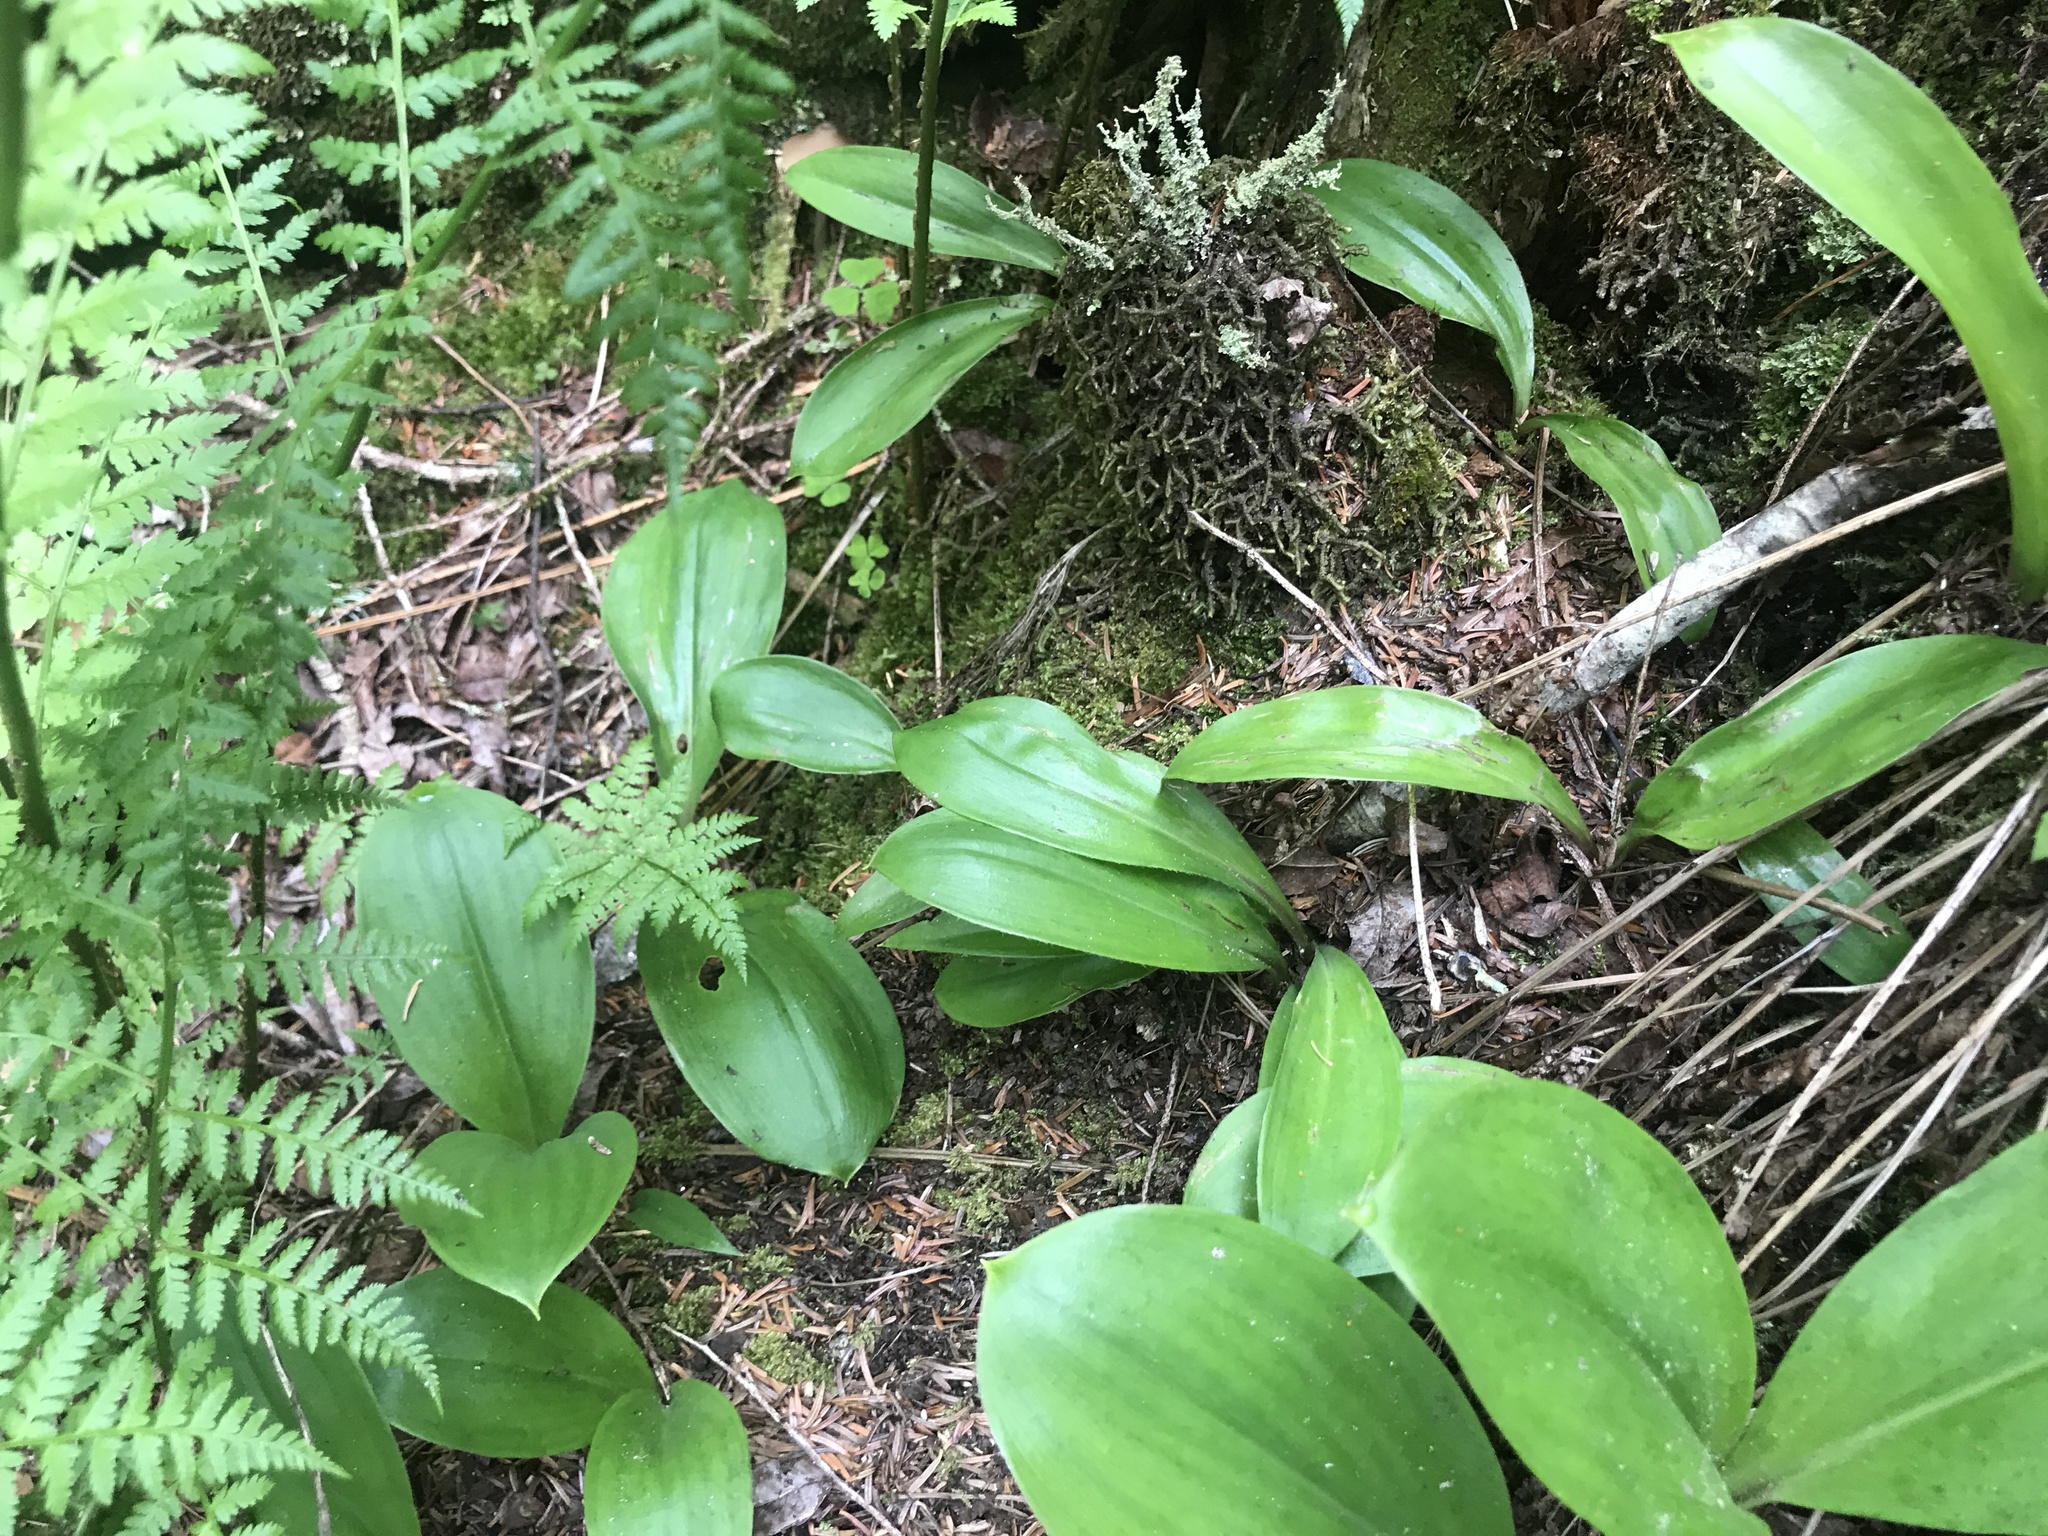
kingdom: Plantae
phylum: Tracheophyta
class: Liliopsida
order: Liliales
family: Liliaceae
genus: Clintonia
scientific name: Clintonia borealis
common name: Yellow clintonia
